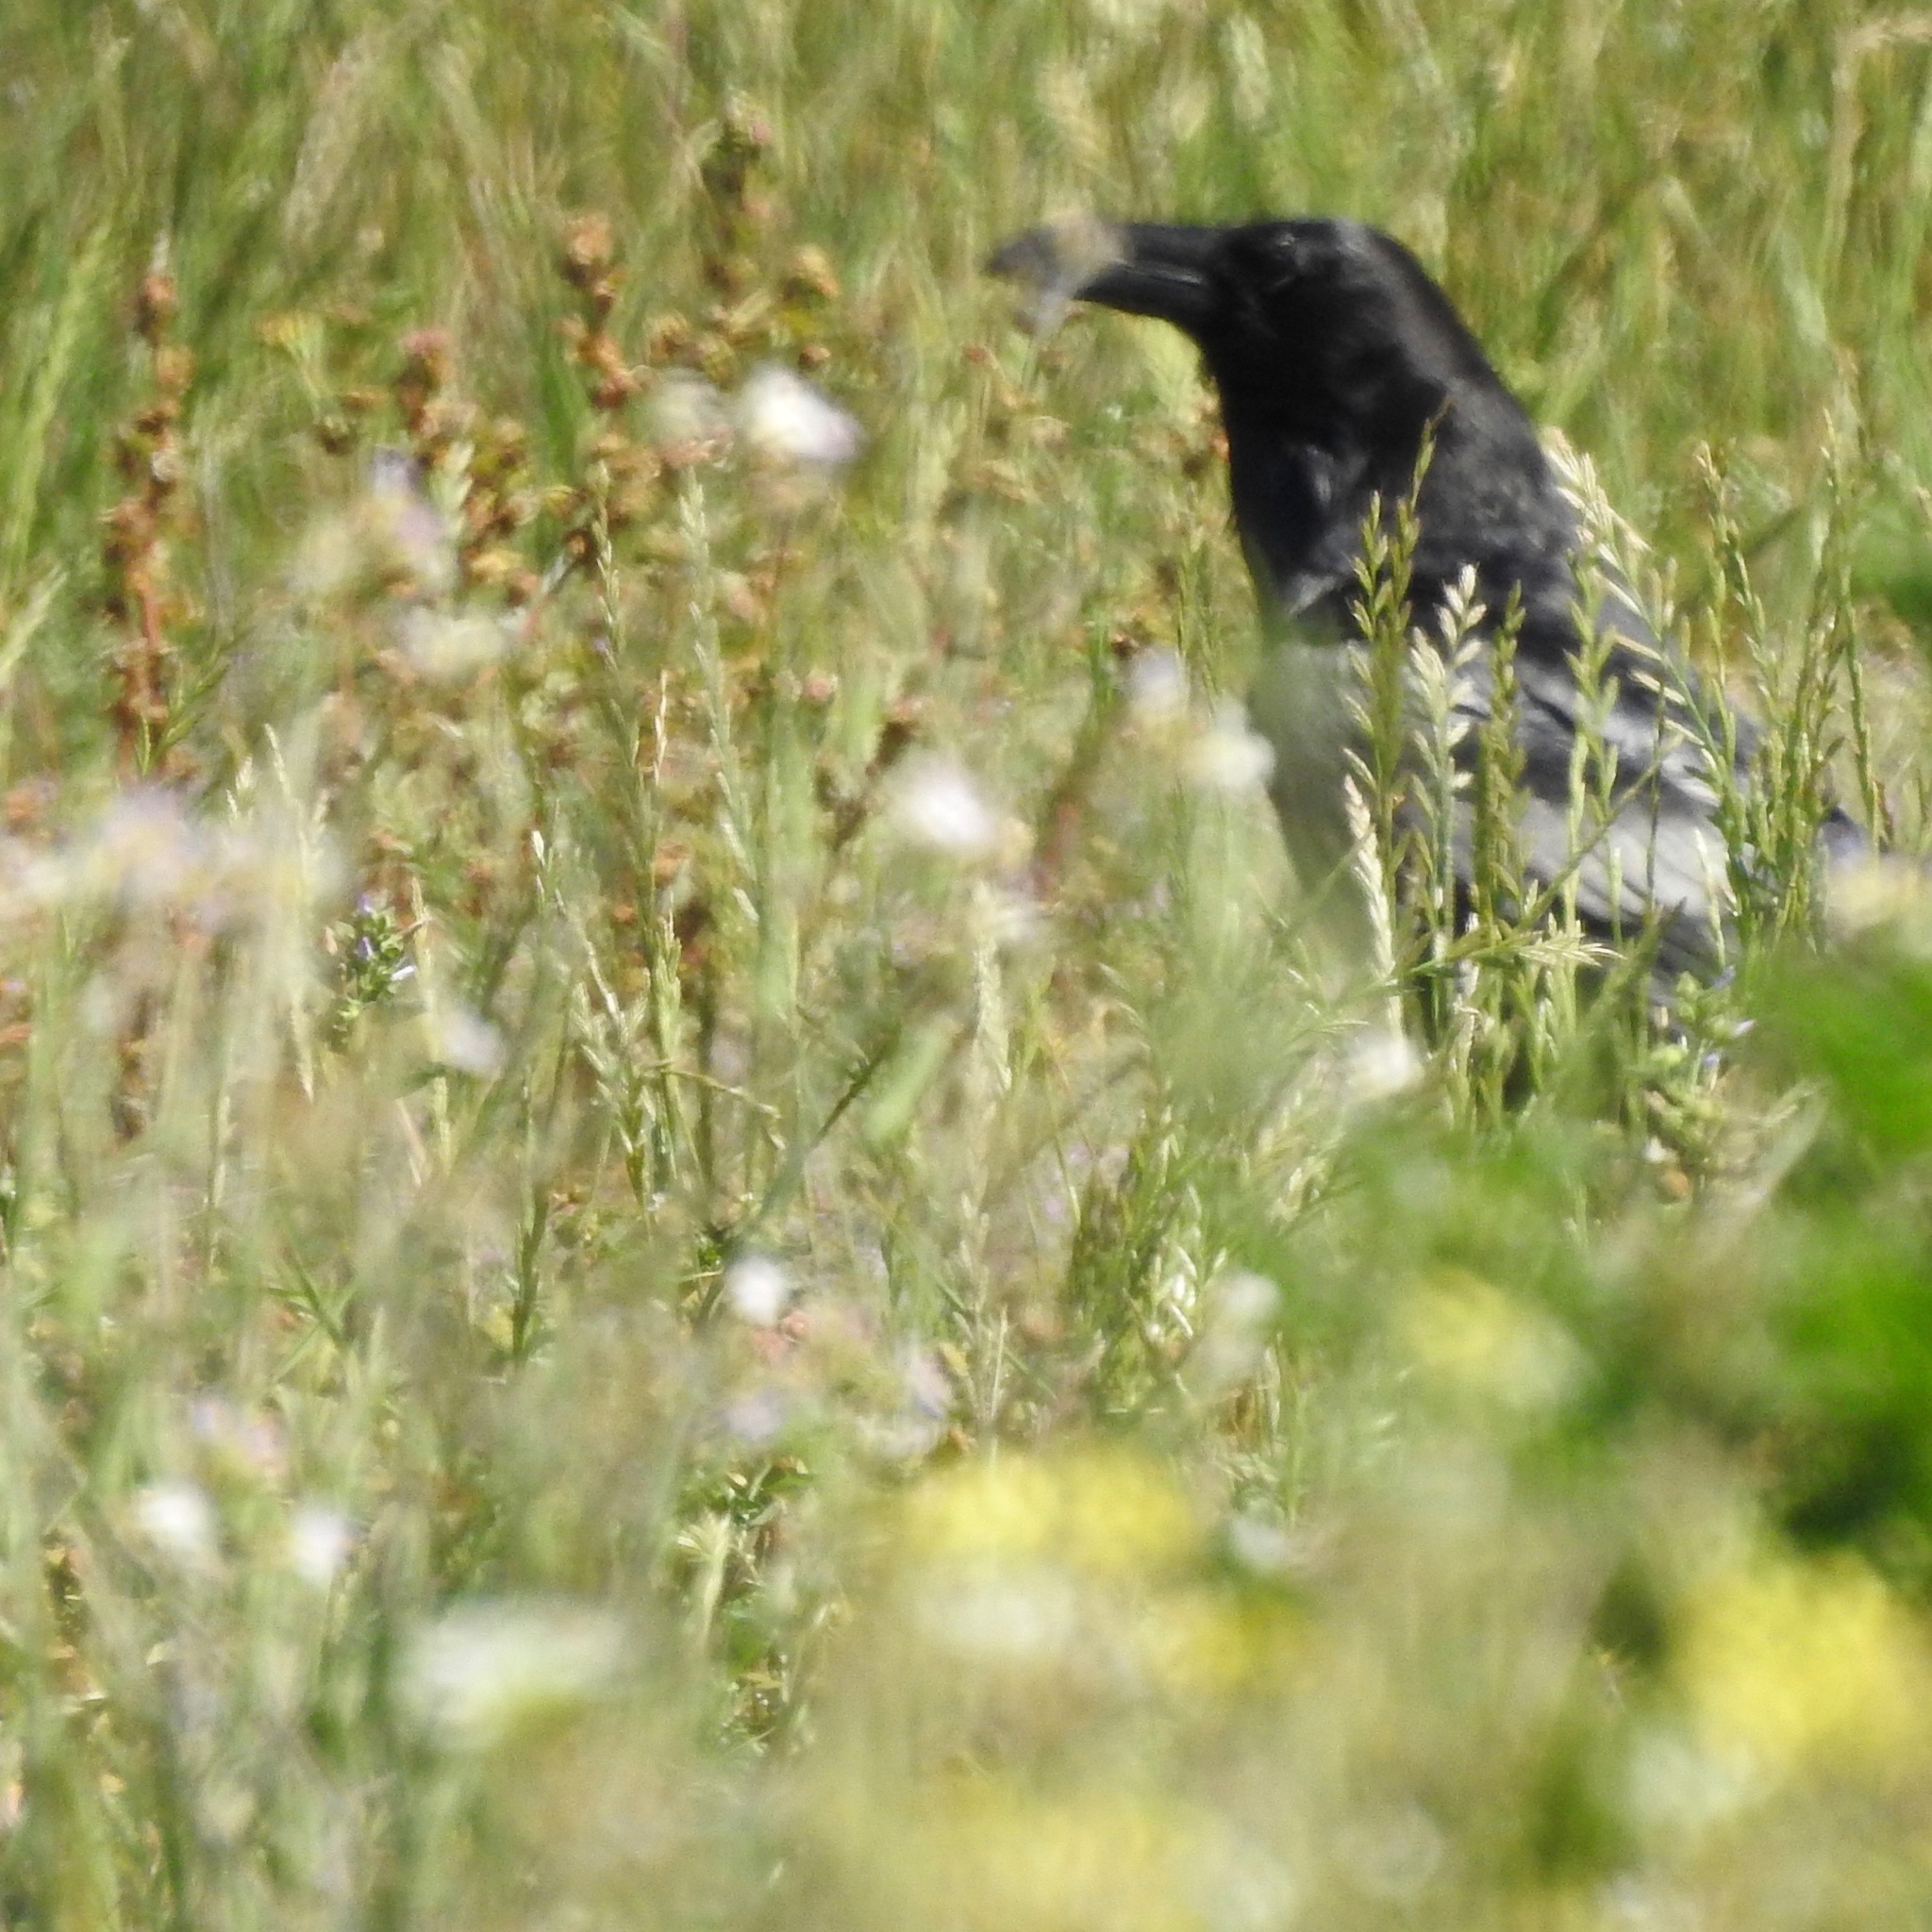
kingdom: Animalia
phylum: Chordata
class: Aves
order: Passeriformes
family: Corvidae
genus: Corvus
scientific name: Corvus corax
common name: Common raven
